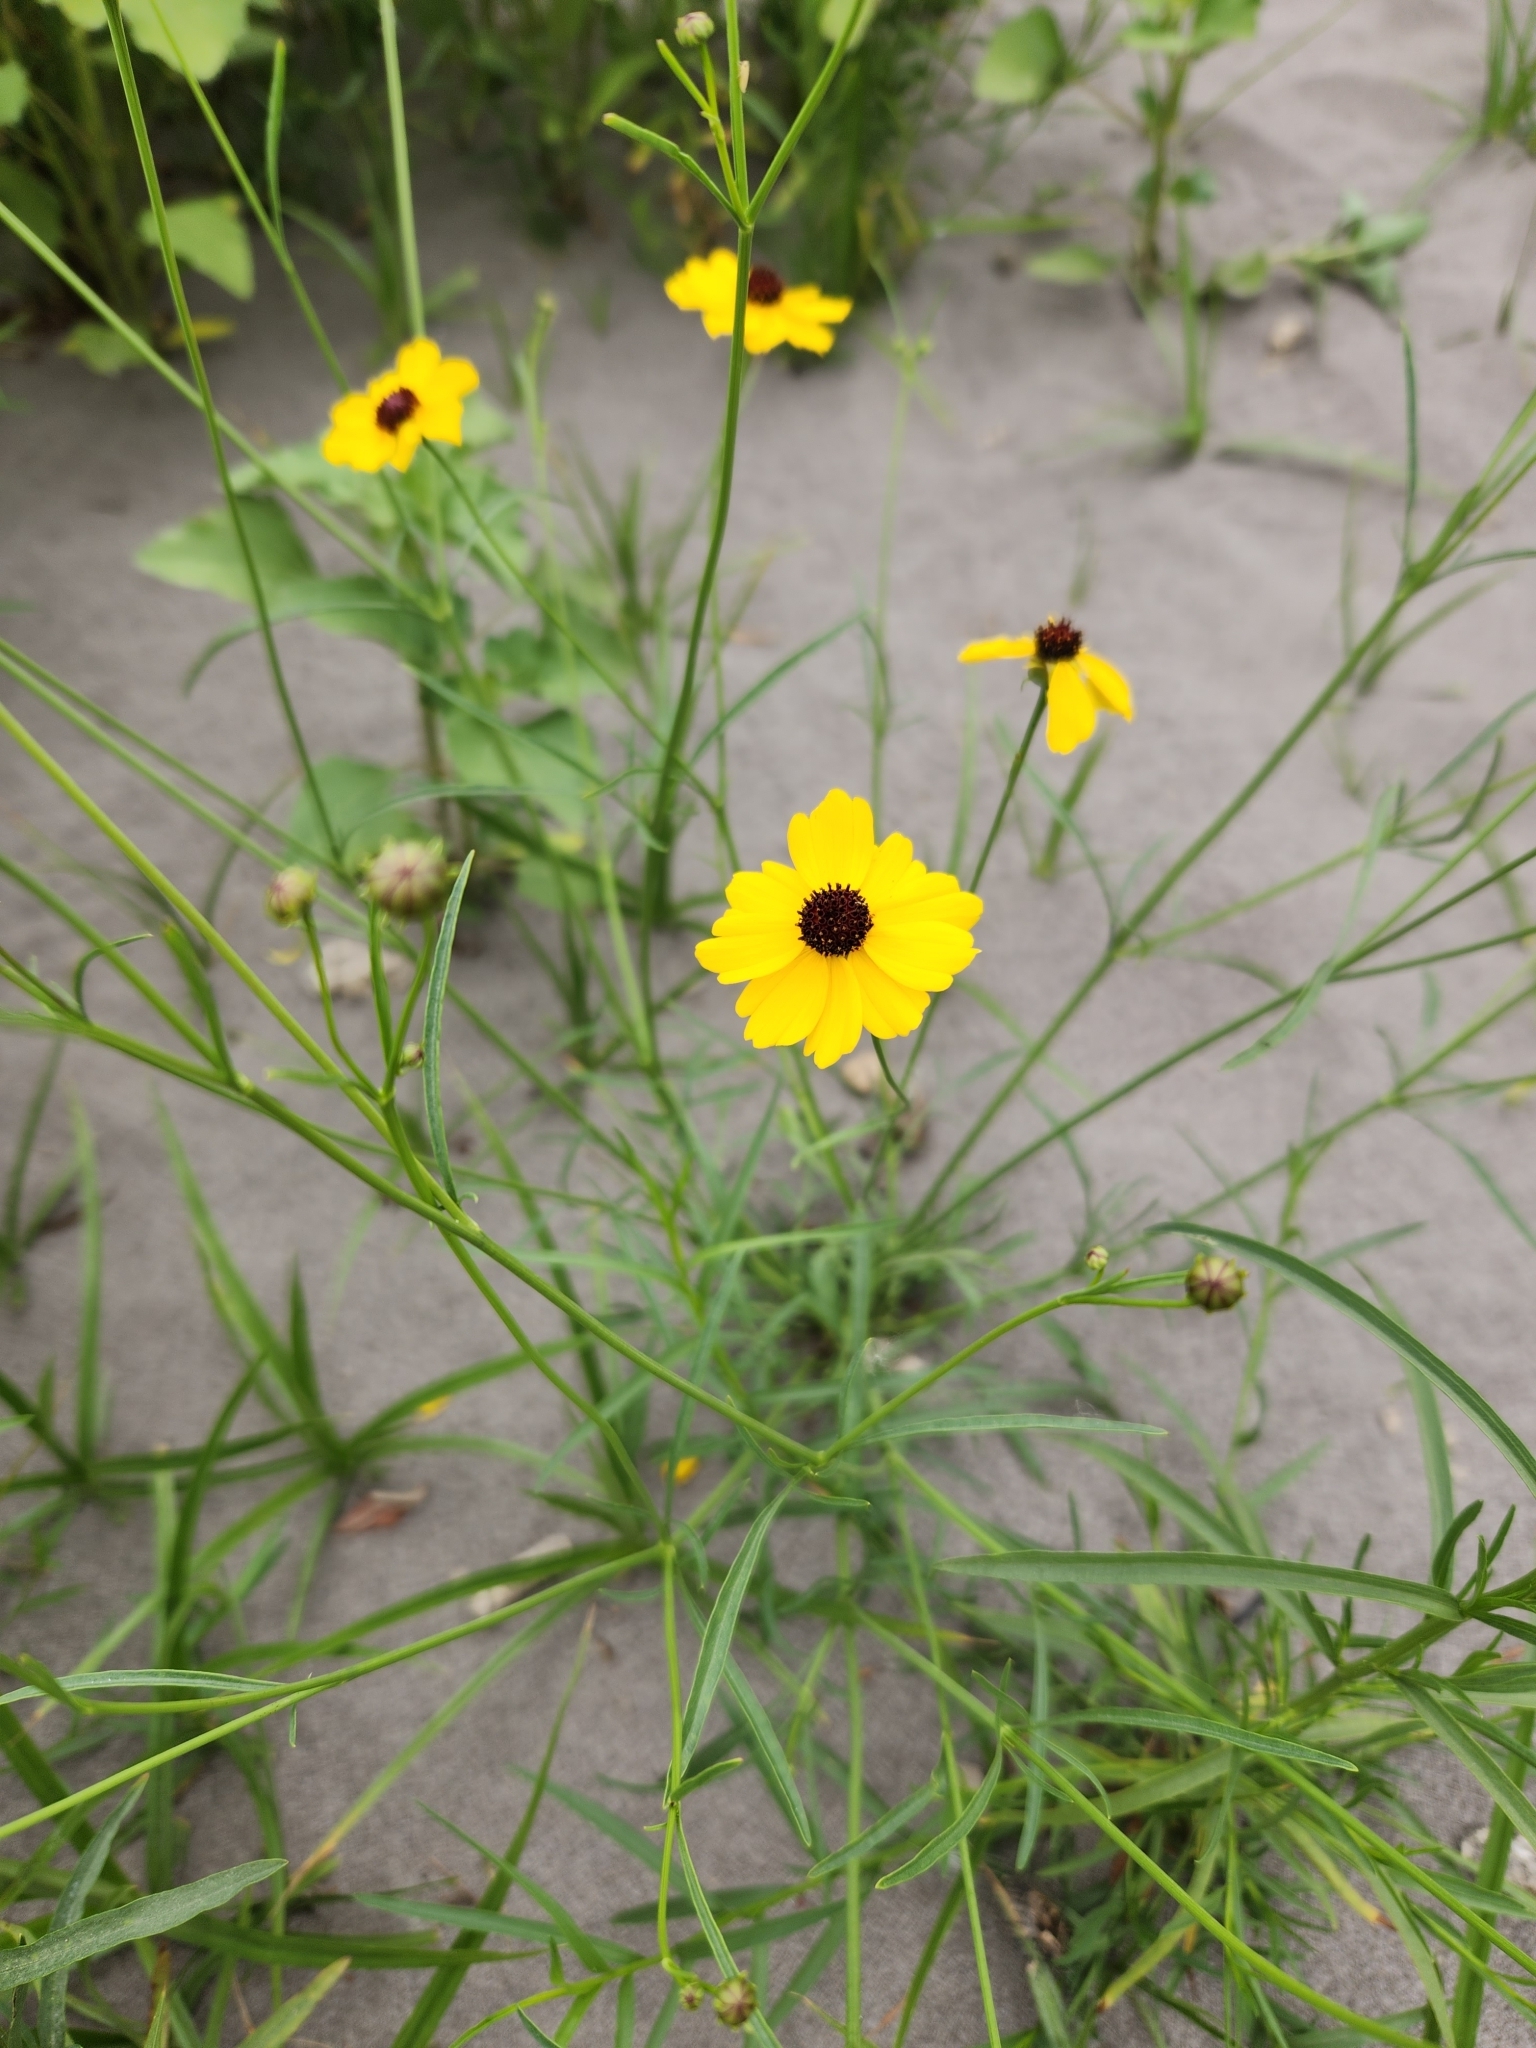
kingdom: Plantae
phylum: Tracheophyta
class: Magnoliopsida
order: Asterales
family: Asteraceae
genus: Coreopsis
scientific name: Coreopsis tinctoria
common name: Garden tickseed
